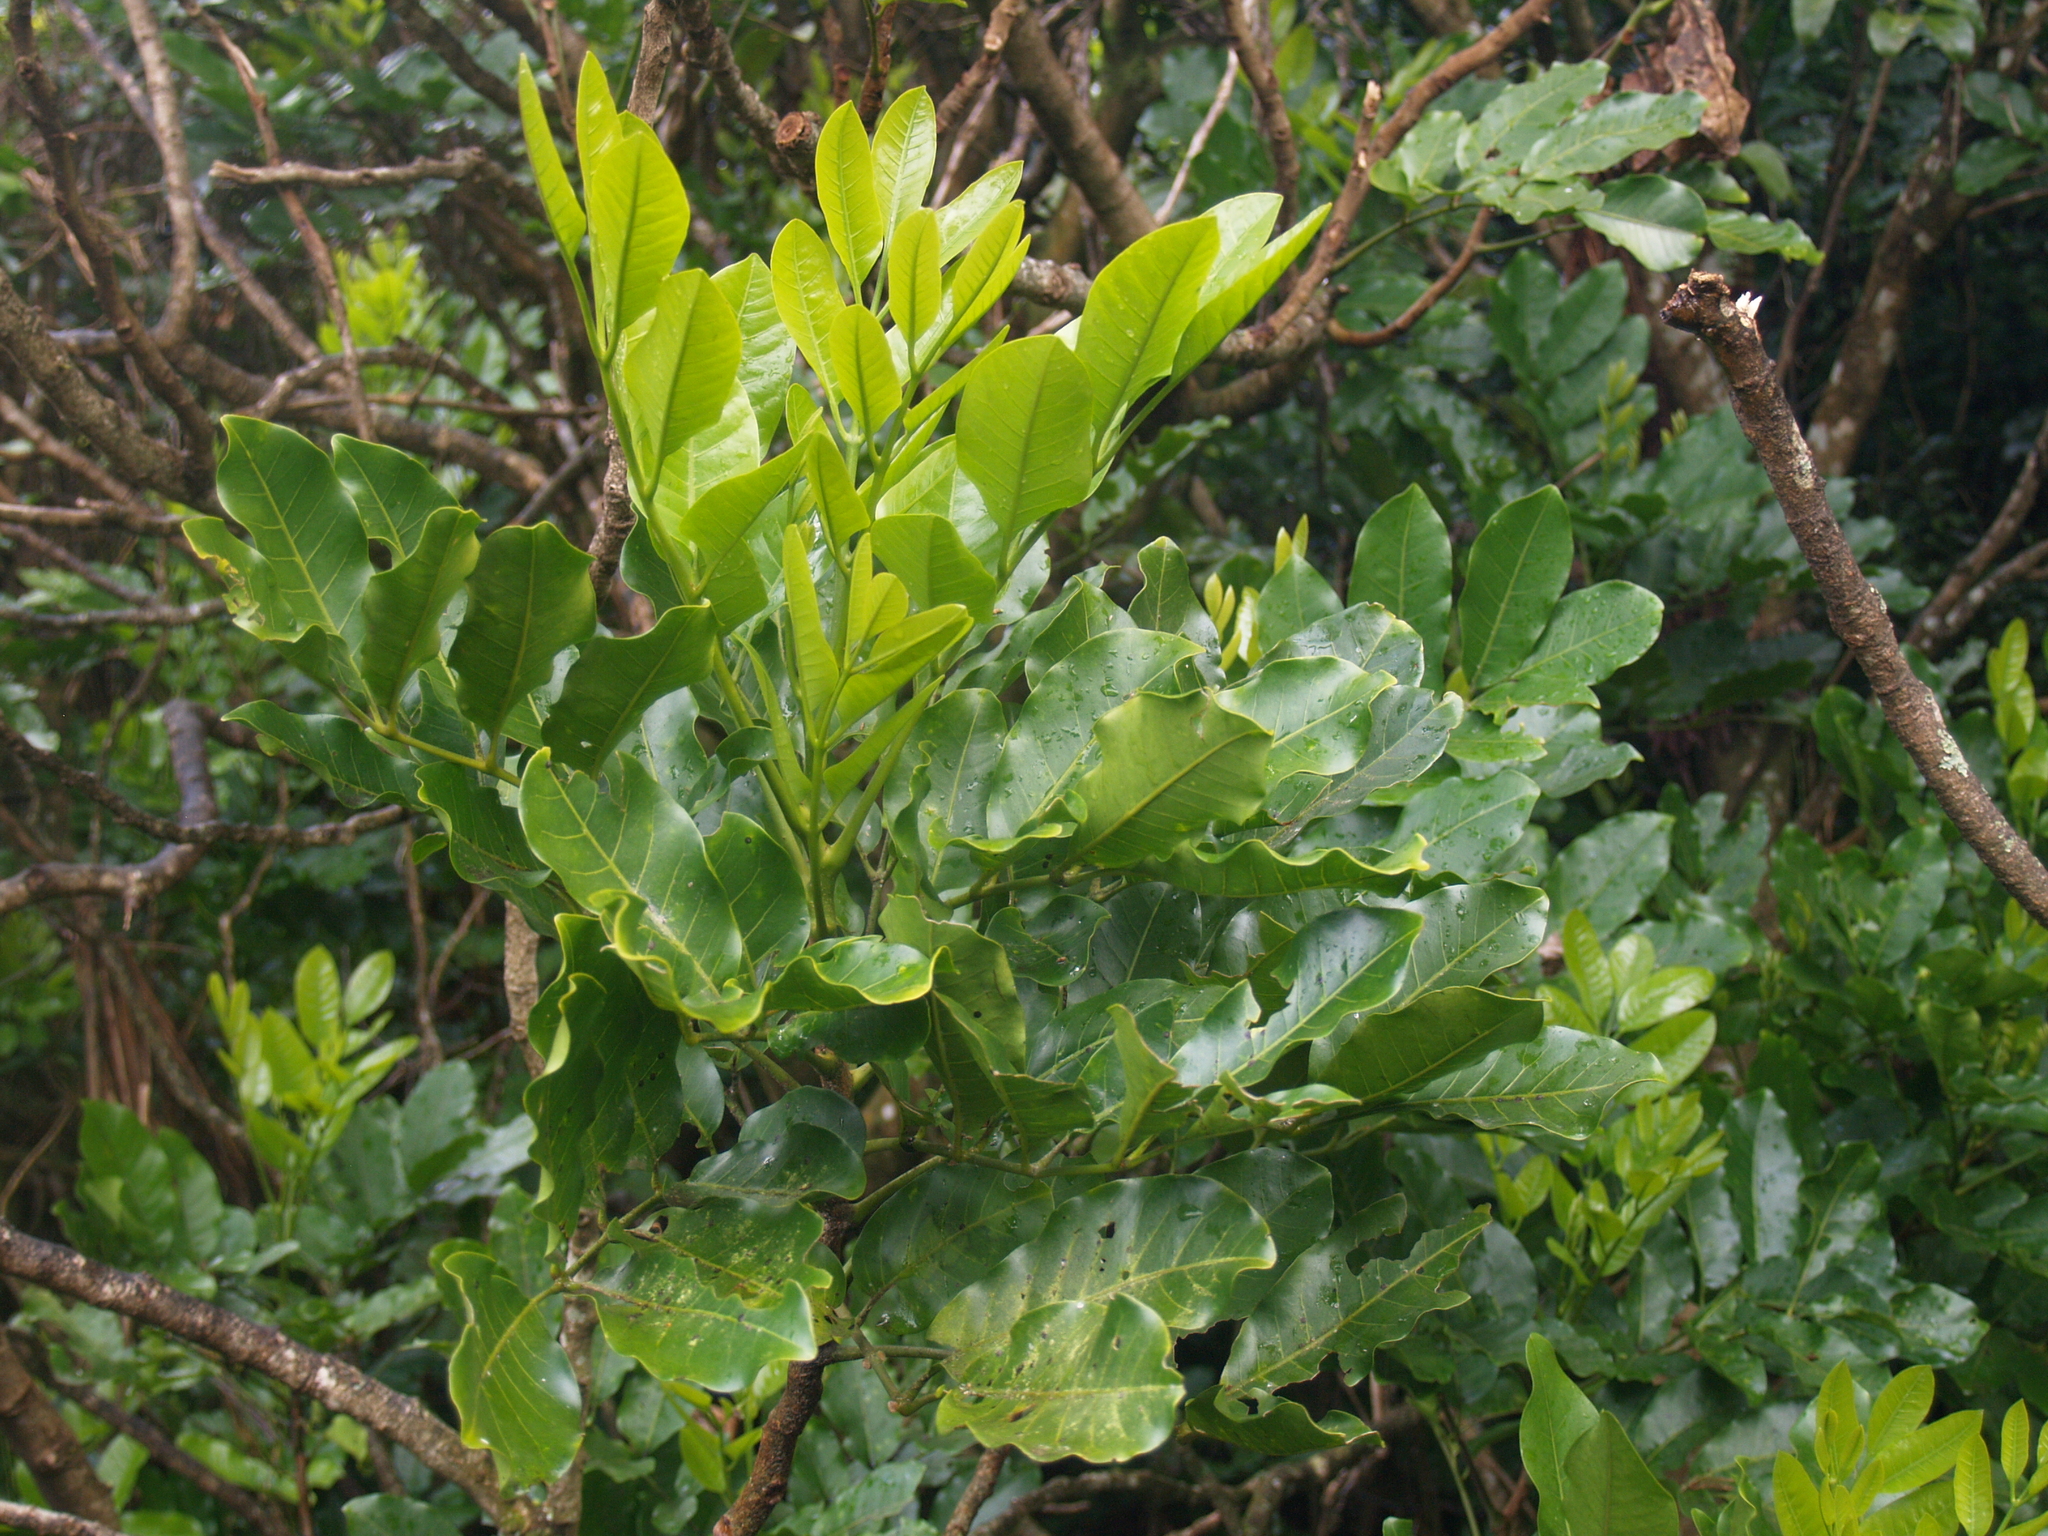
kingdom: Plantae
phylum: Tracheophyta
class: Magnoliopsida
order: Sapindales
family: Meliaceae
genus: Didymocheton
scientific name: Didymocheton spectabilis
